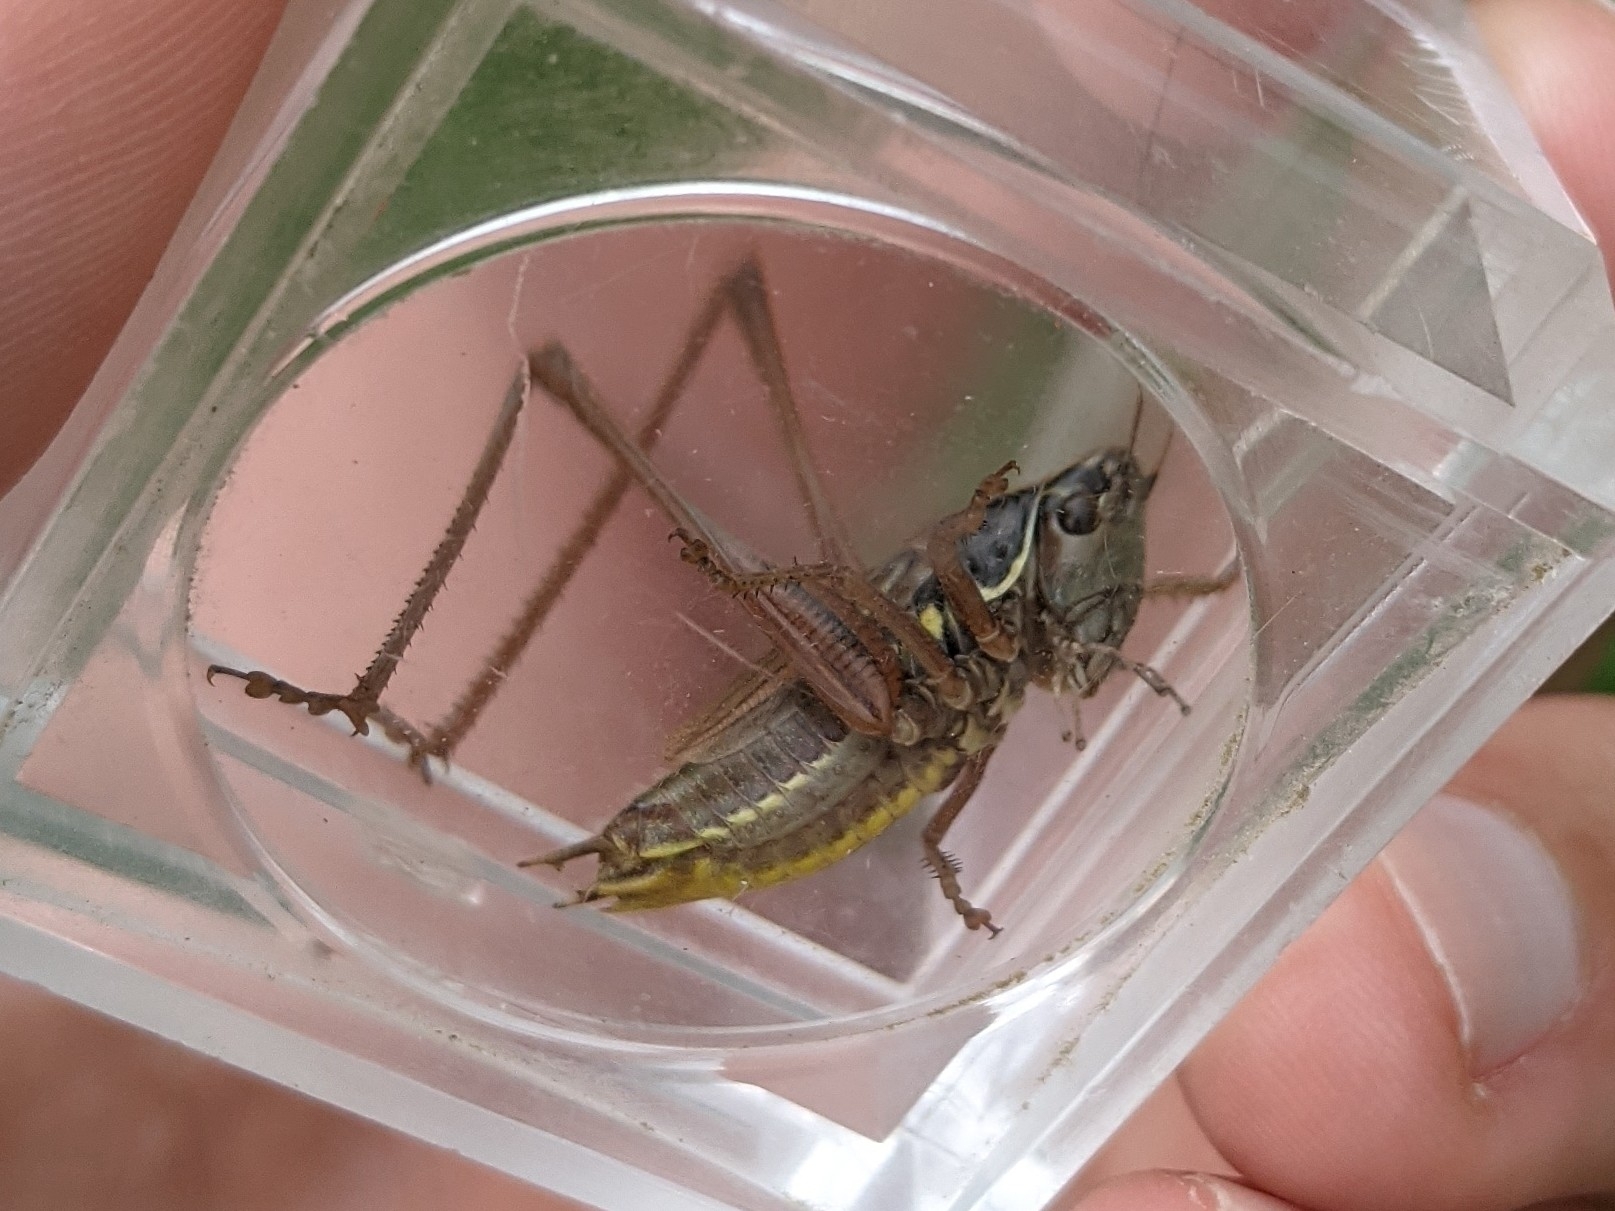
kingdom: Animalia
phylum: Arthropoda
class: Insecta
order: Orthoptera
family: Tettigoniidae
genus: Roeseliana
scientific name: Roeseliana roeselii
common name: Roesel's bush cricket
